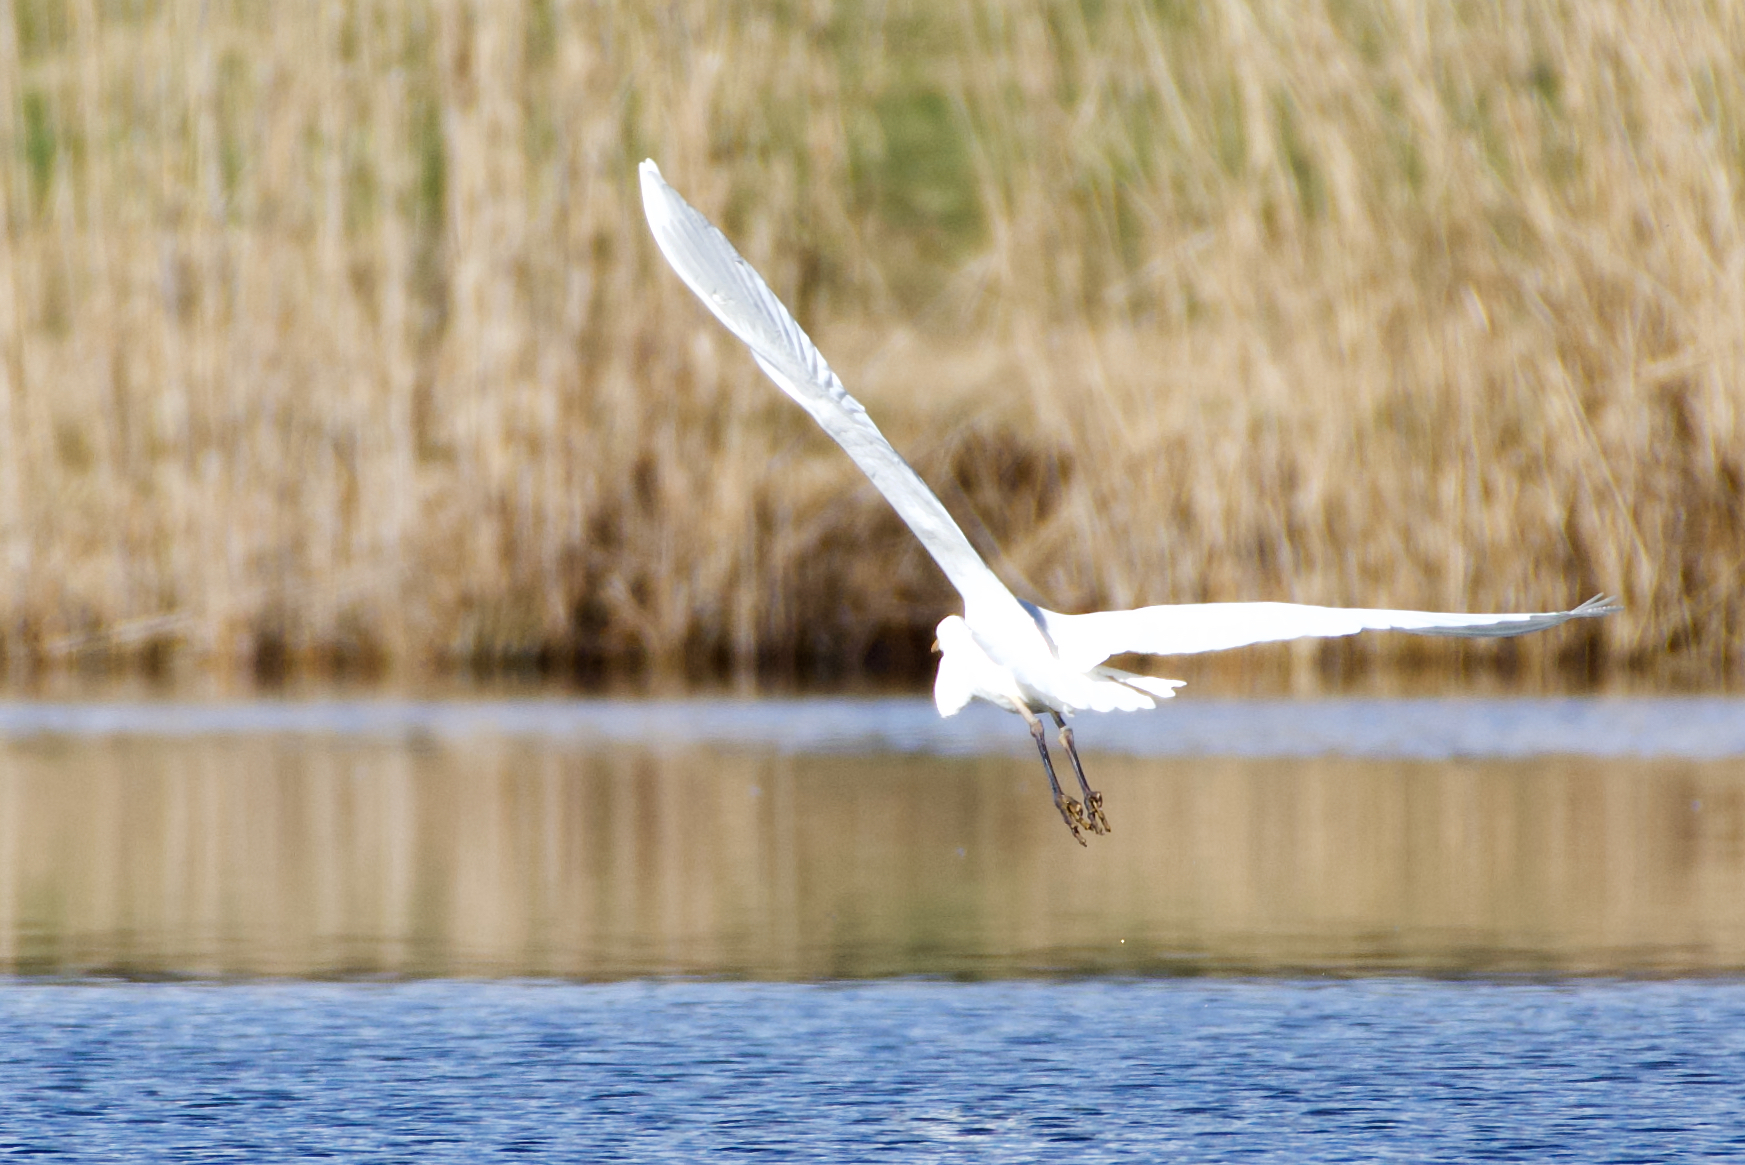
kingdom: Animalia
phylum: Chordata
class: Aves
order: Pelecaniformes
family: Ardeidae
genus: Ardea
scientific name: Ardea alba
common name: Great egret
